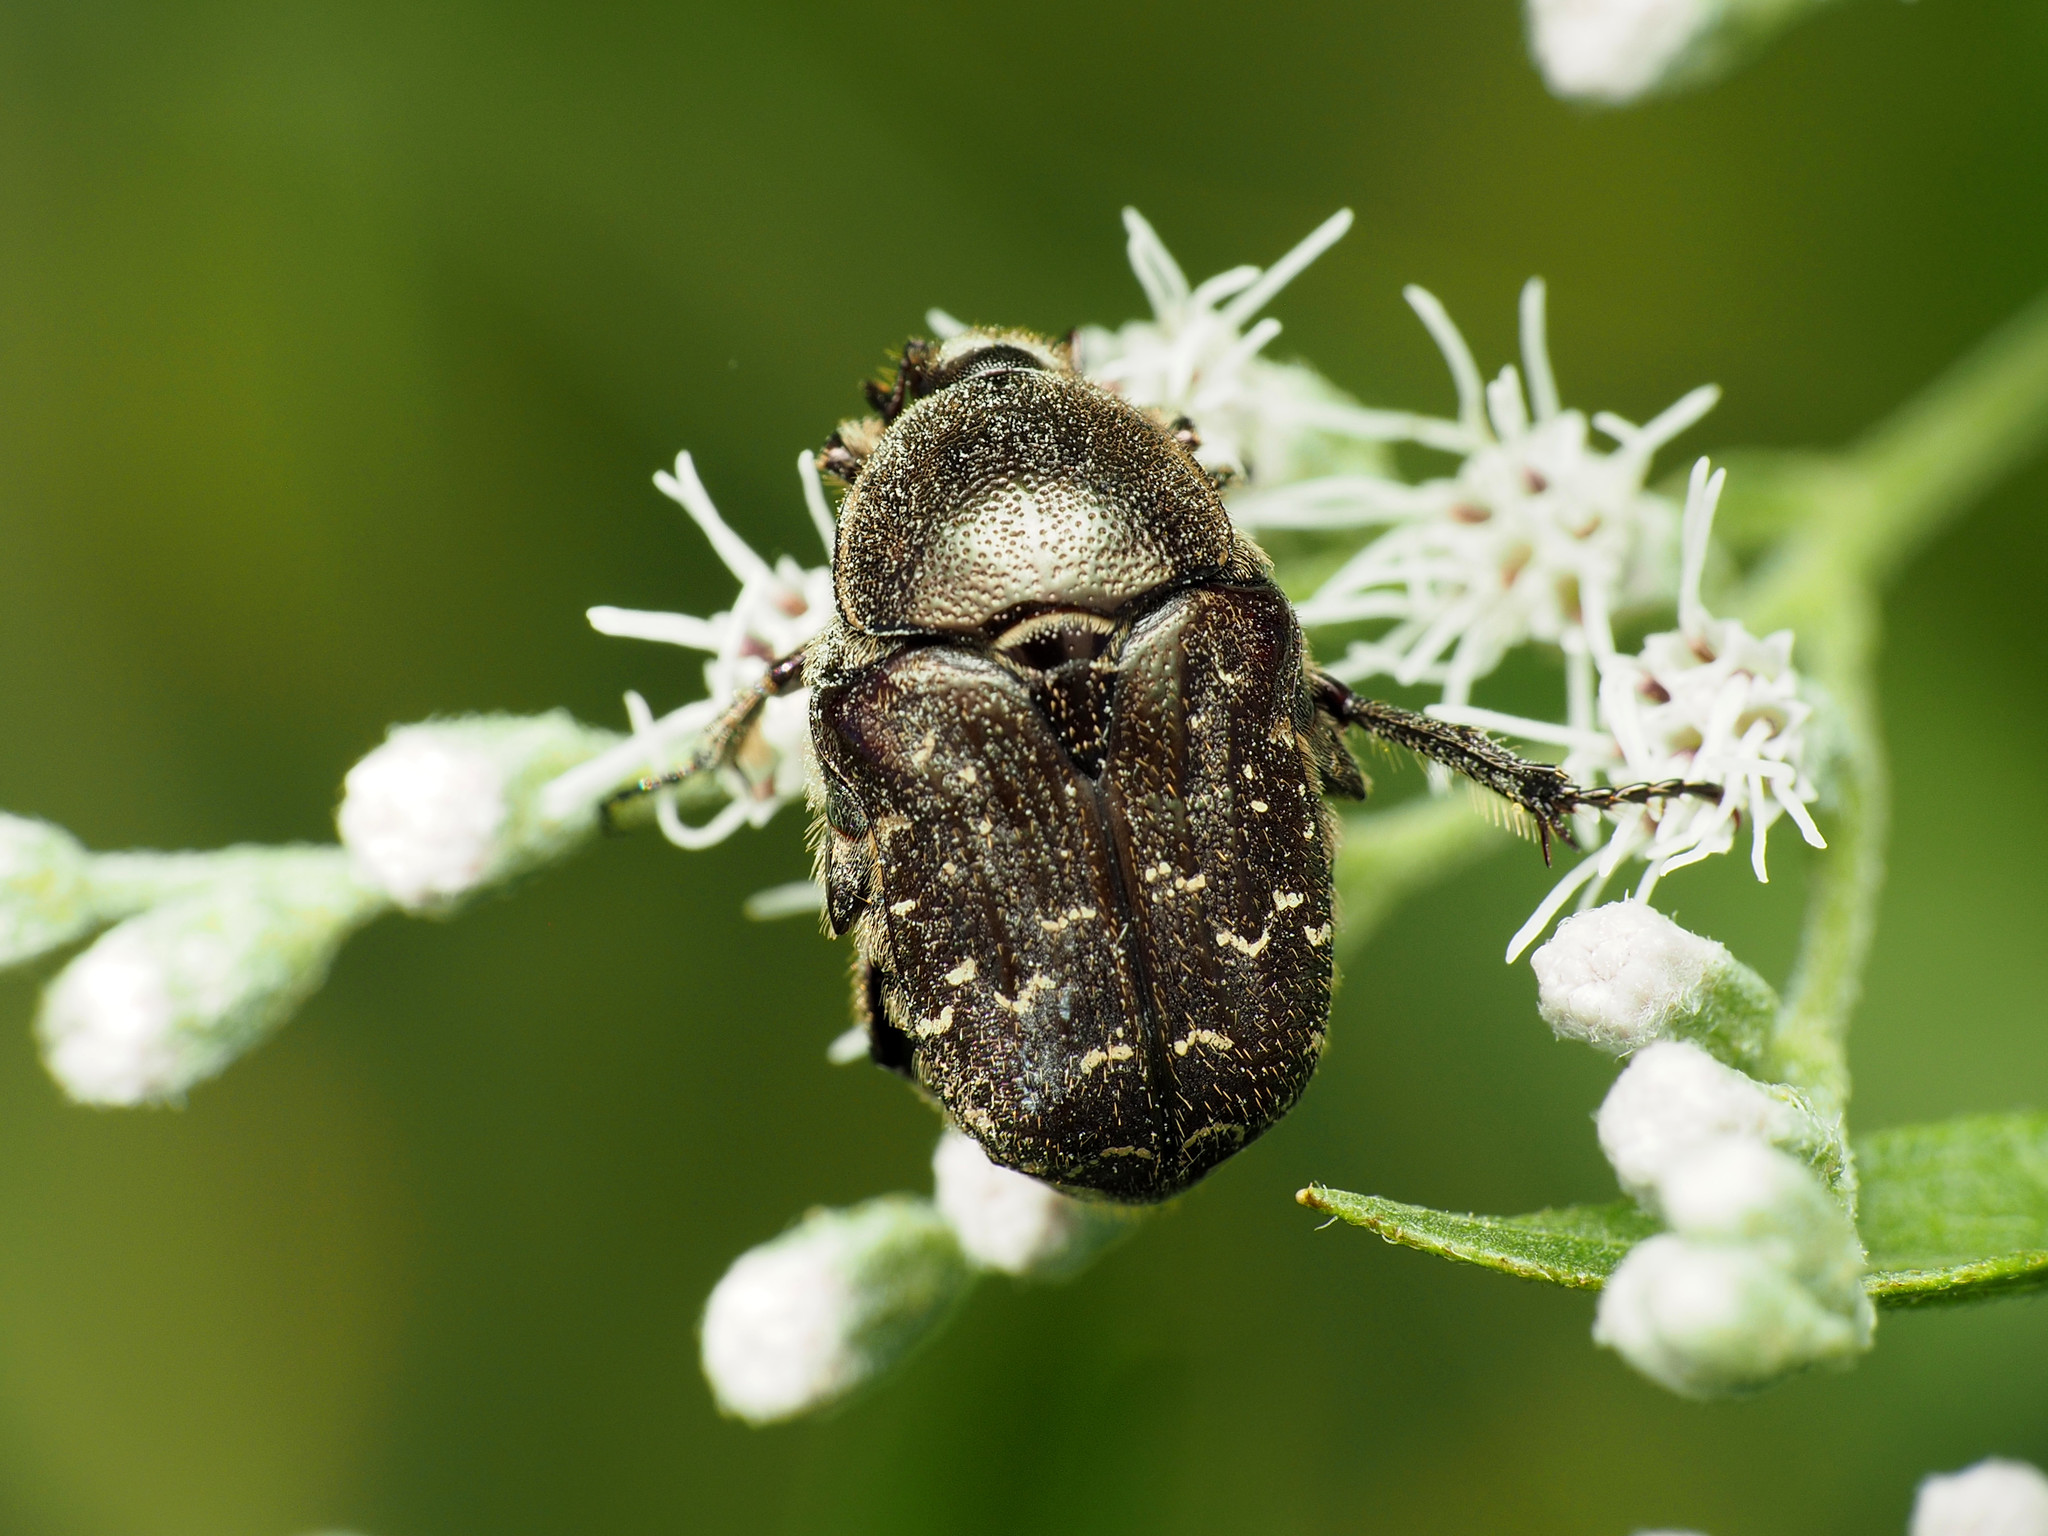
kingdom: Animalia
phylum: Arthropoda
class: Insecta
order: Coleoptera
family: Scarabaeidae
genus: Euphoria
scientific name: Euphoria sepulcralis
